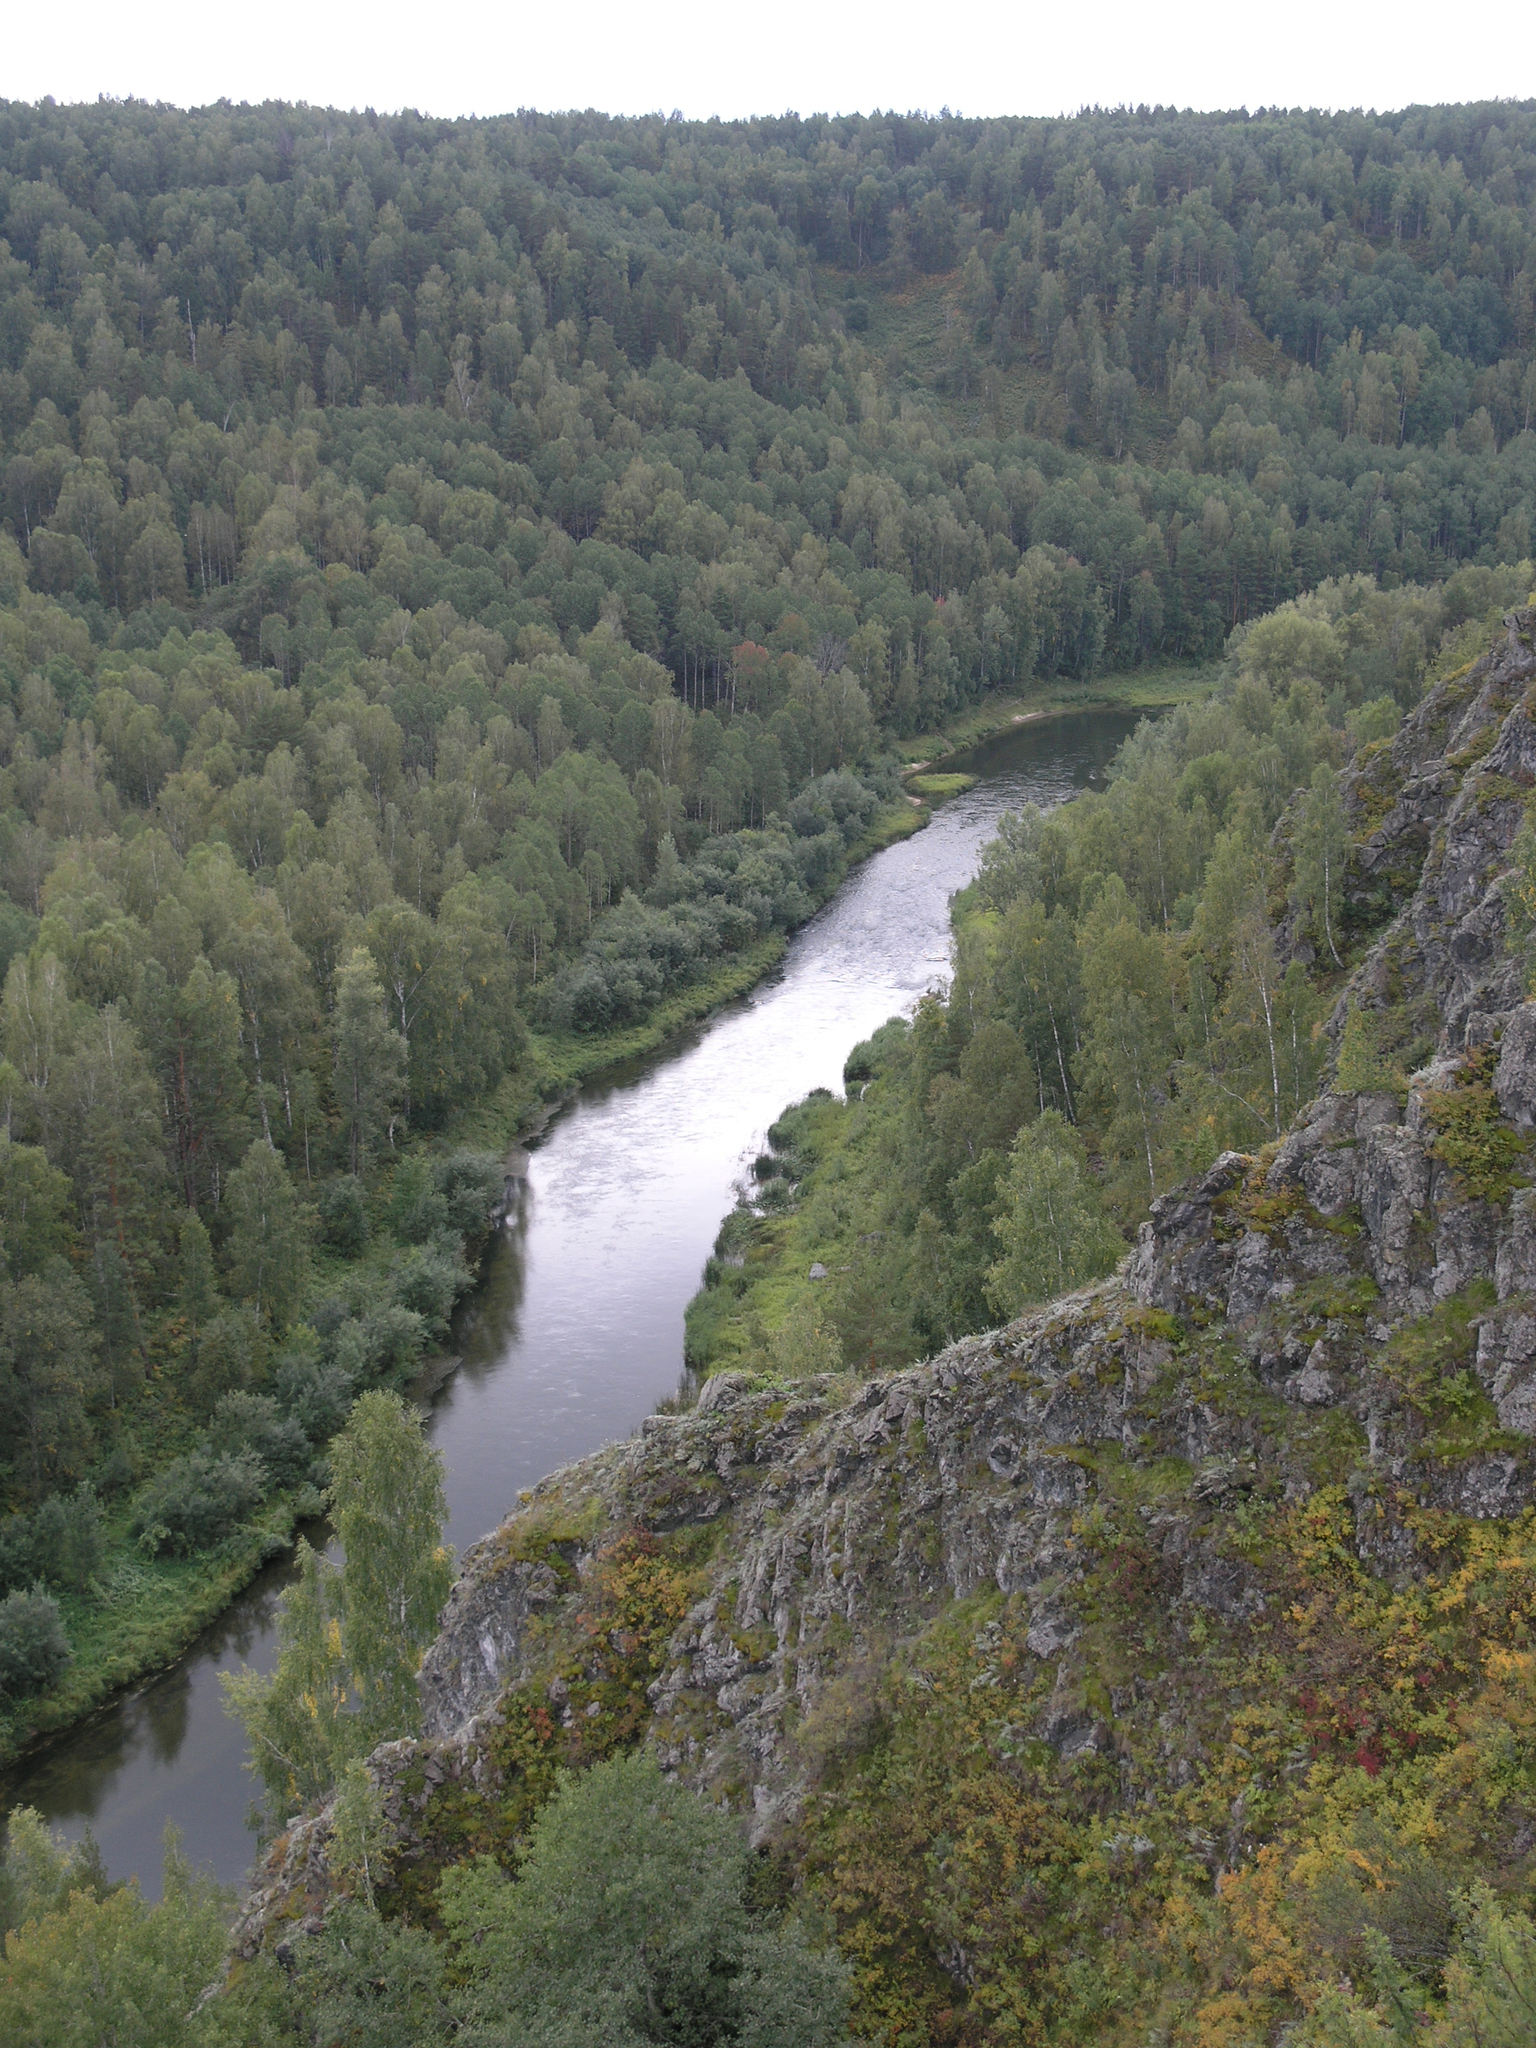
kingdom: Plantae
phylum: Tracheophyta
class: Pinopsida
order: Pinales
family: Pinaceae
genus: Pinus
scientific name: Pinus sylvestris
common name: Scots pine
